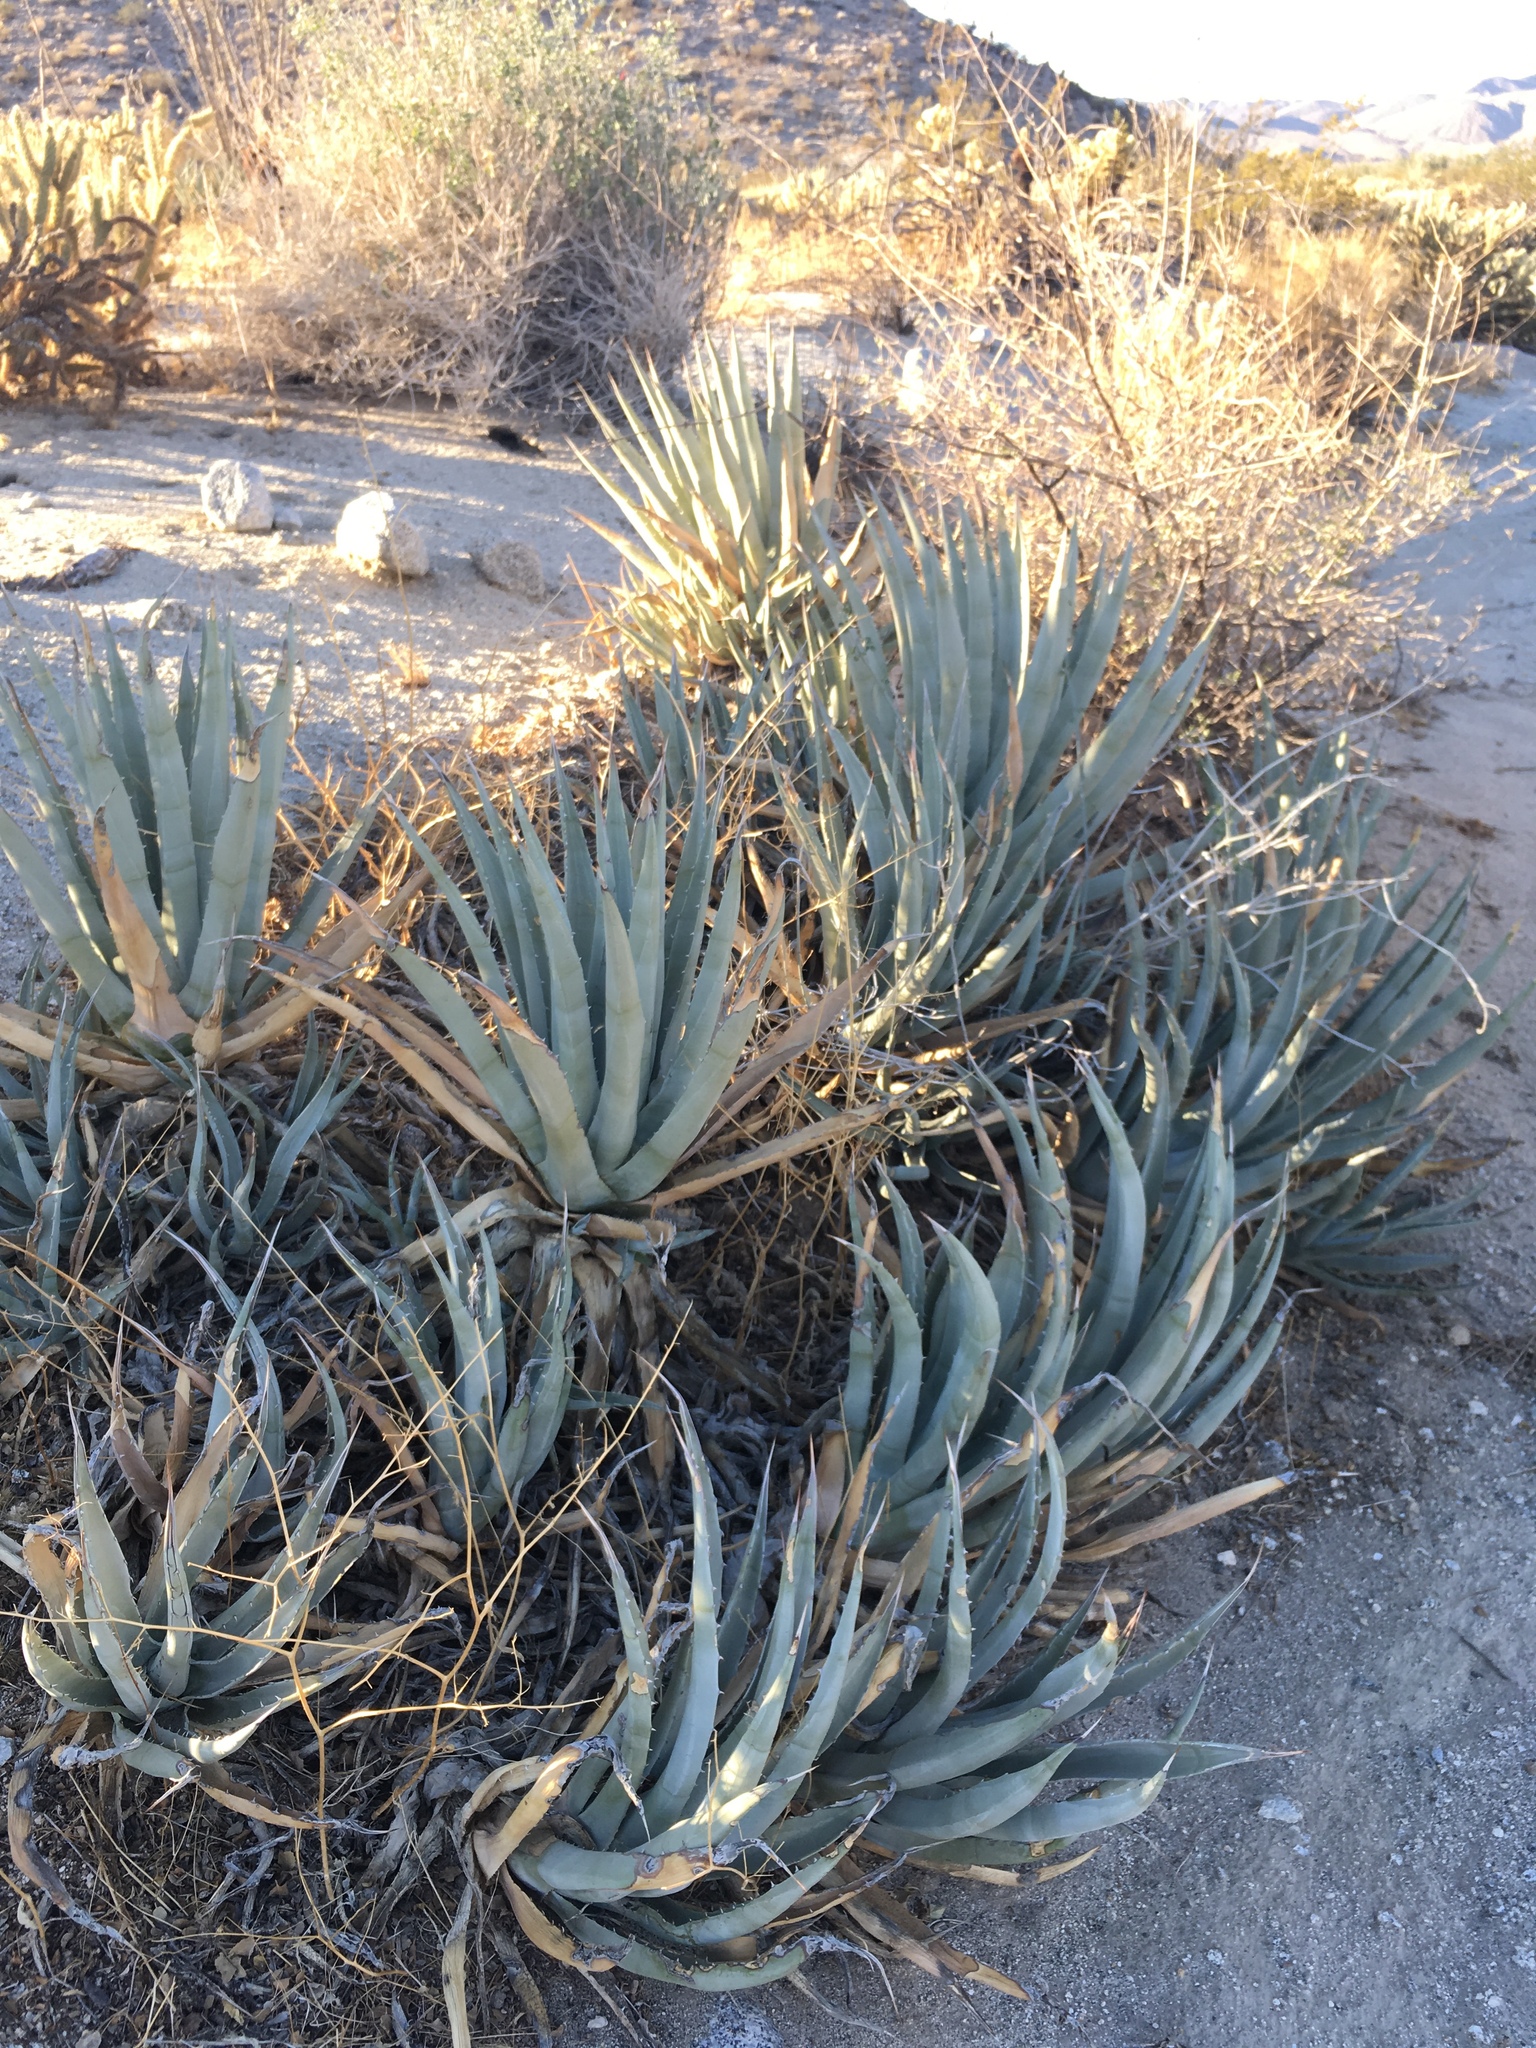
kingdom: Plantae
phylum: Tracheophyta
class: Liliopsida
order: Asparagales
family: Asparagaceae
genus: Agave
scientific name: Agave deserti
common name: Desert agave
